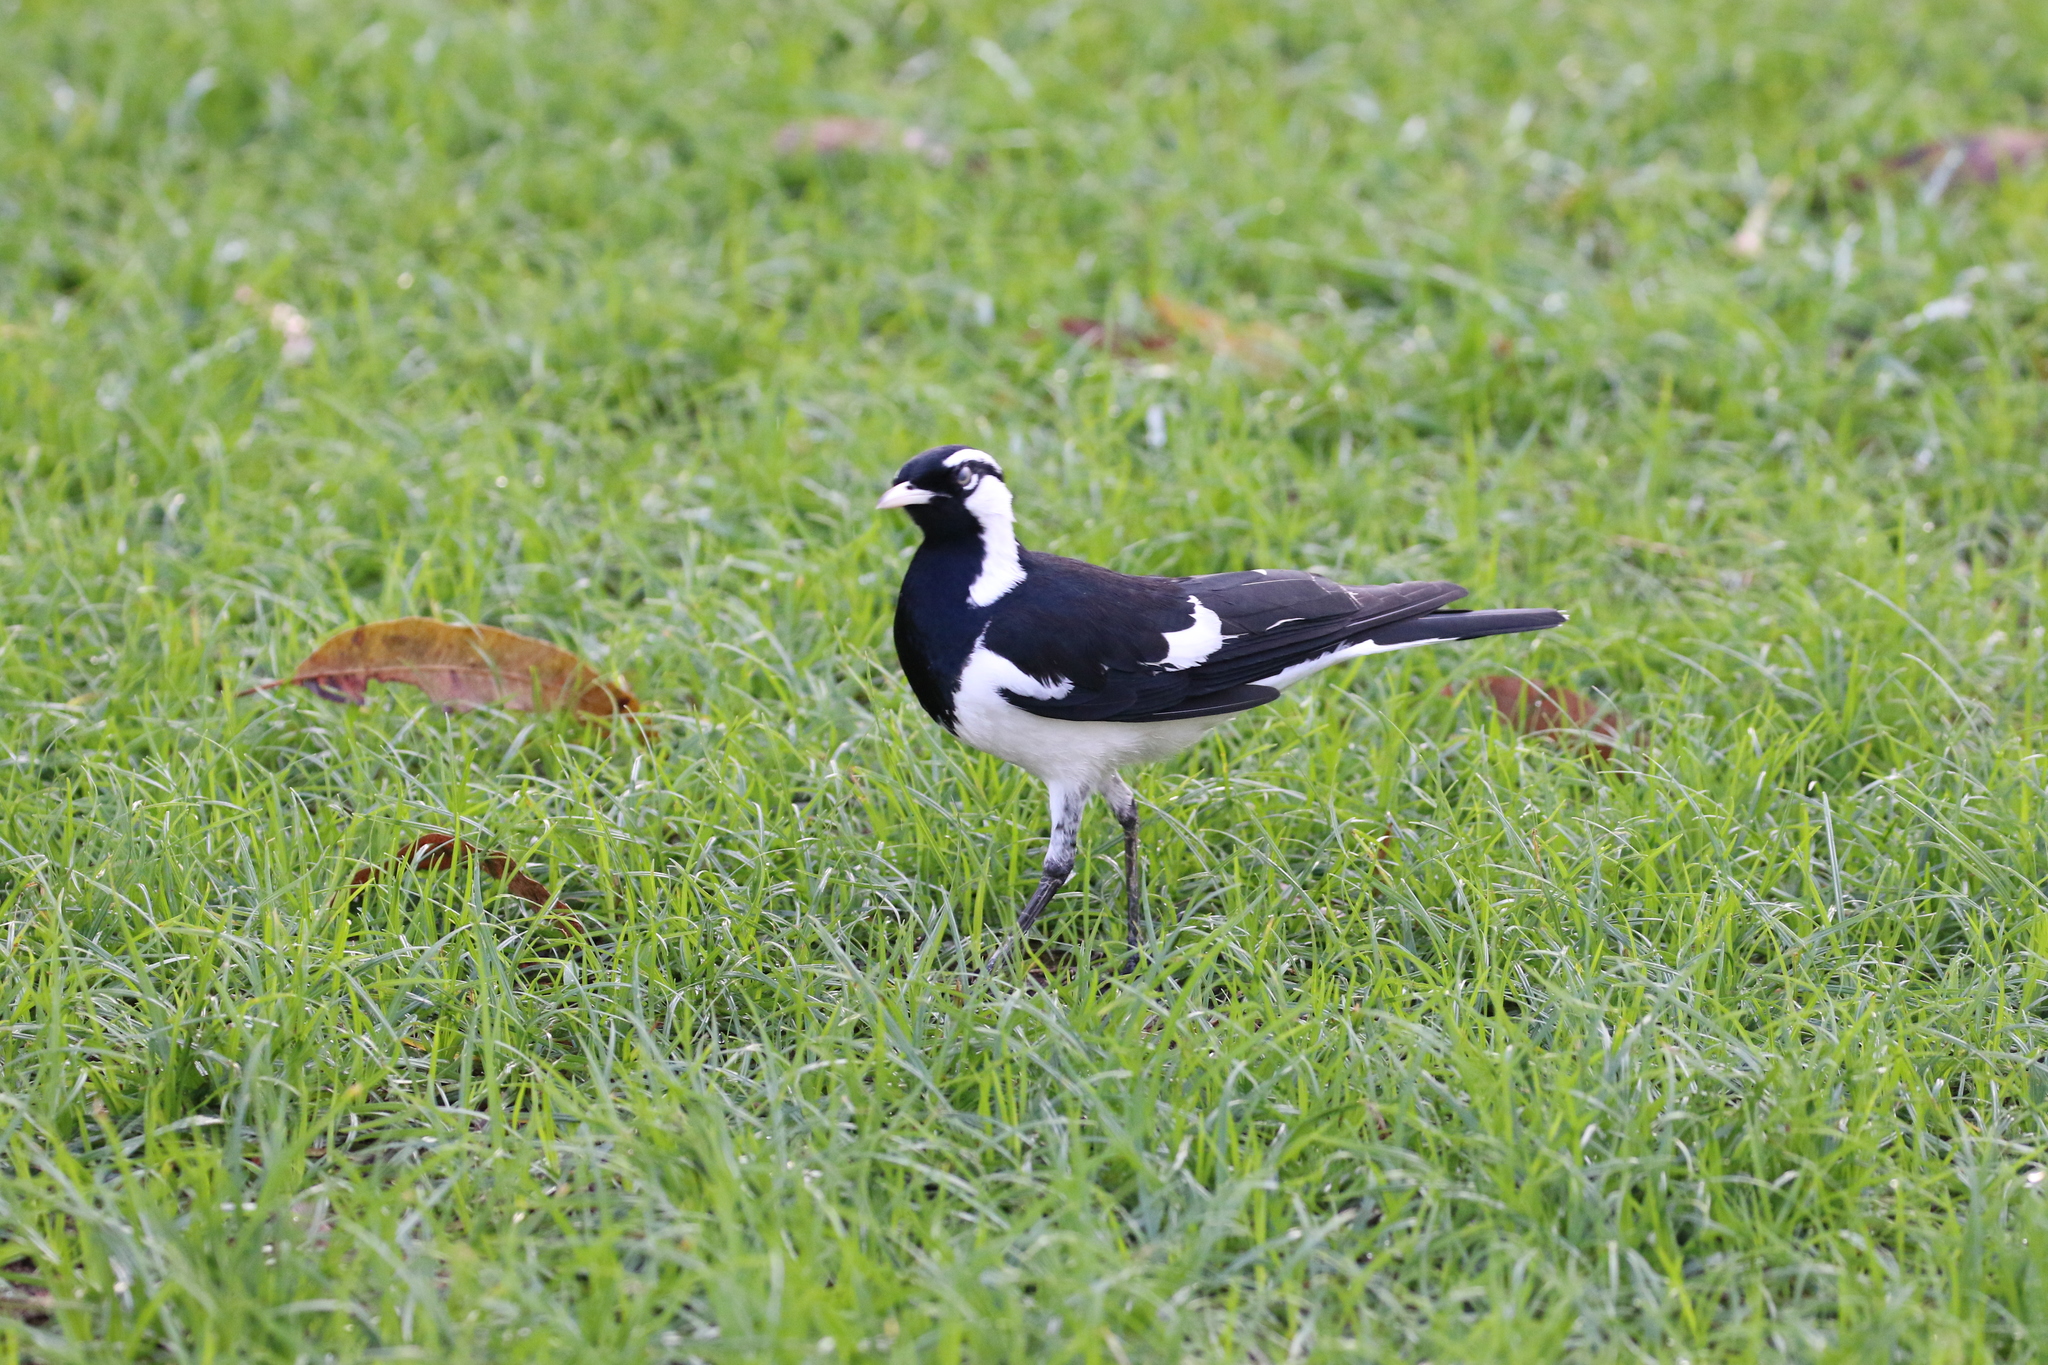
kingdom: Animalia
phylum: Chordata
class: Aves
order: Passeriformes
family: Monarchidae
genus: Grallina
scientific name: Grallina cyanoleuca
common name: Magpie-lark
